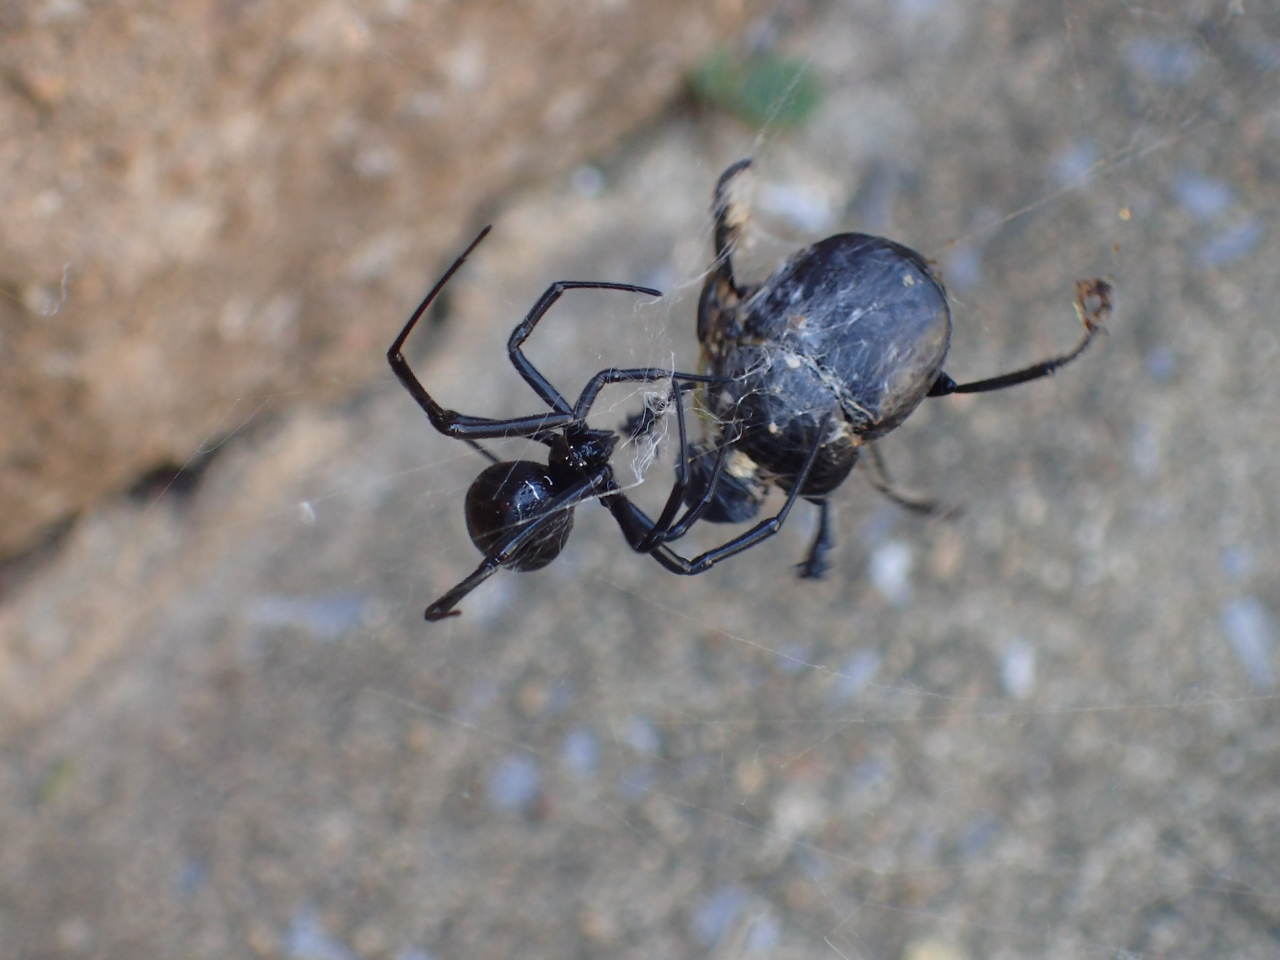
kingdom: Animalia
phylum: Arthropoda
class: Arachnida
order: Araneae
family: Theridiidae
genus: Latrodectus
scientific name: Latrodectus mactans
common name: Cobweb spiders
